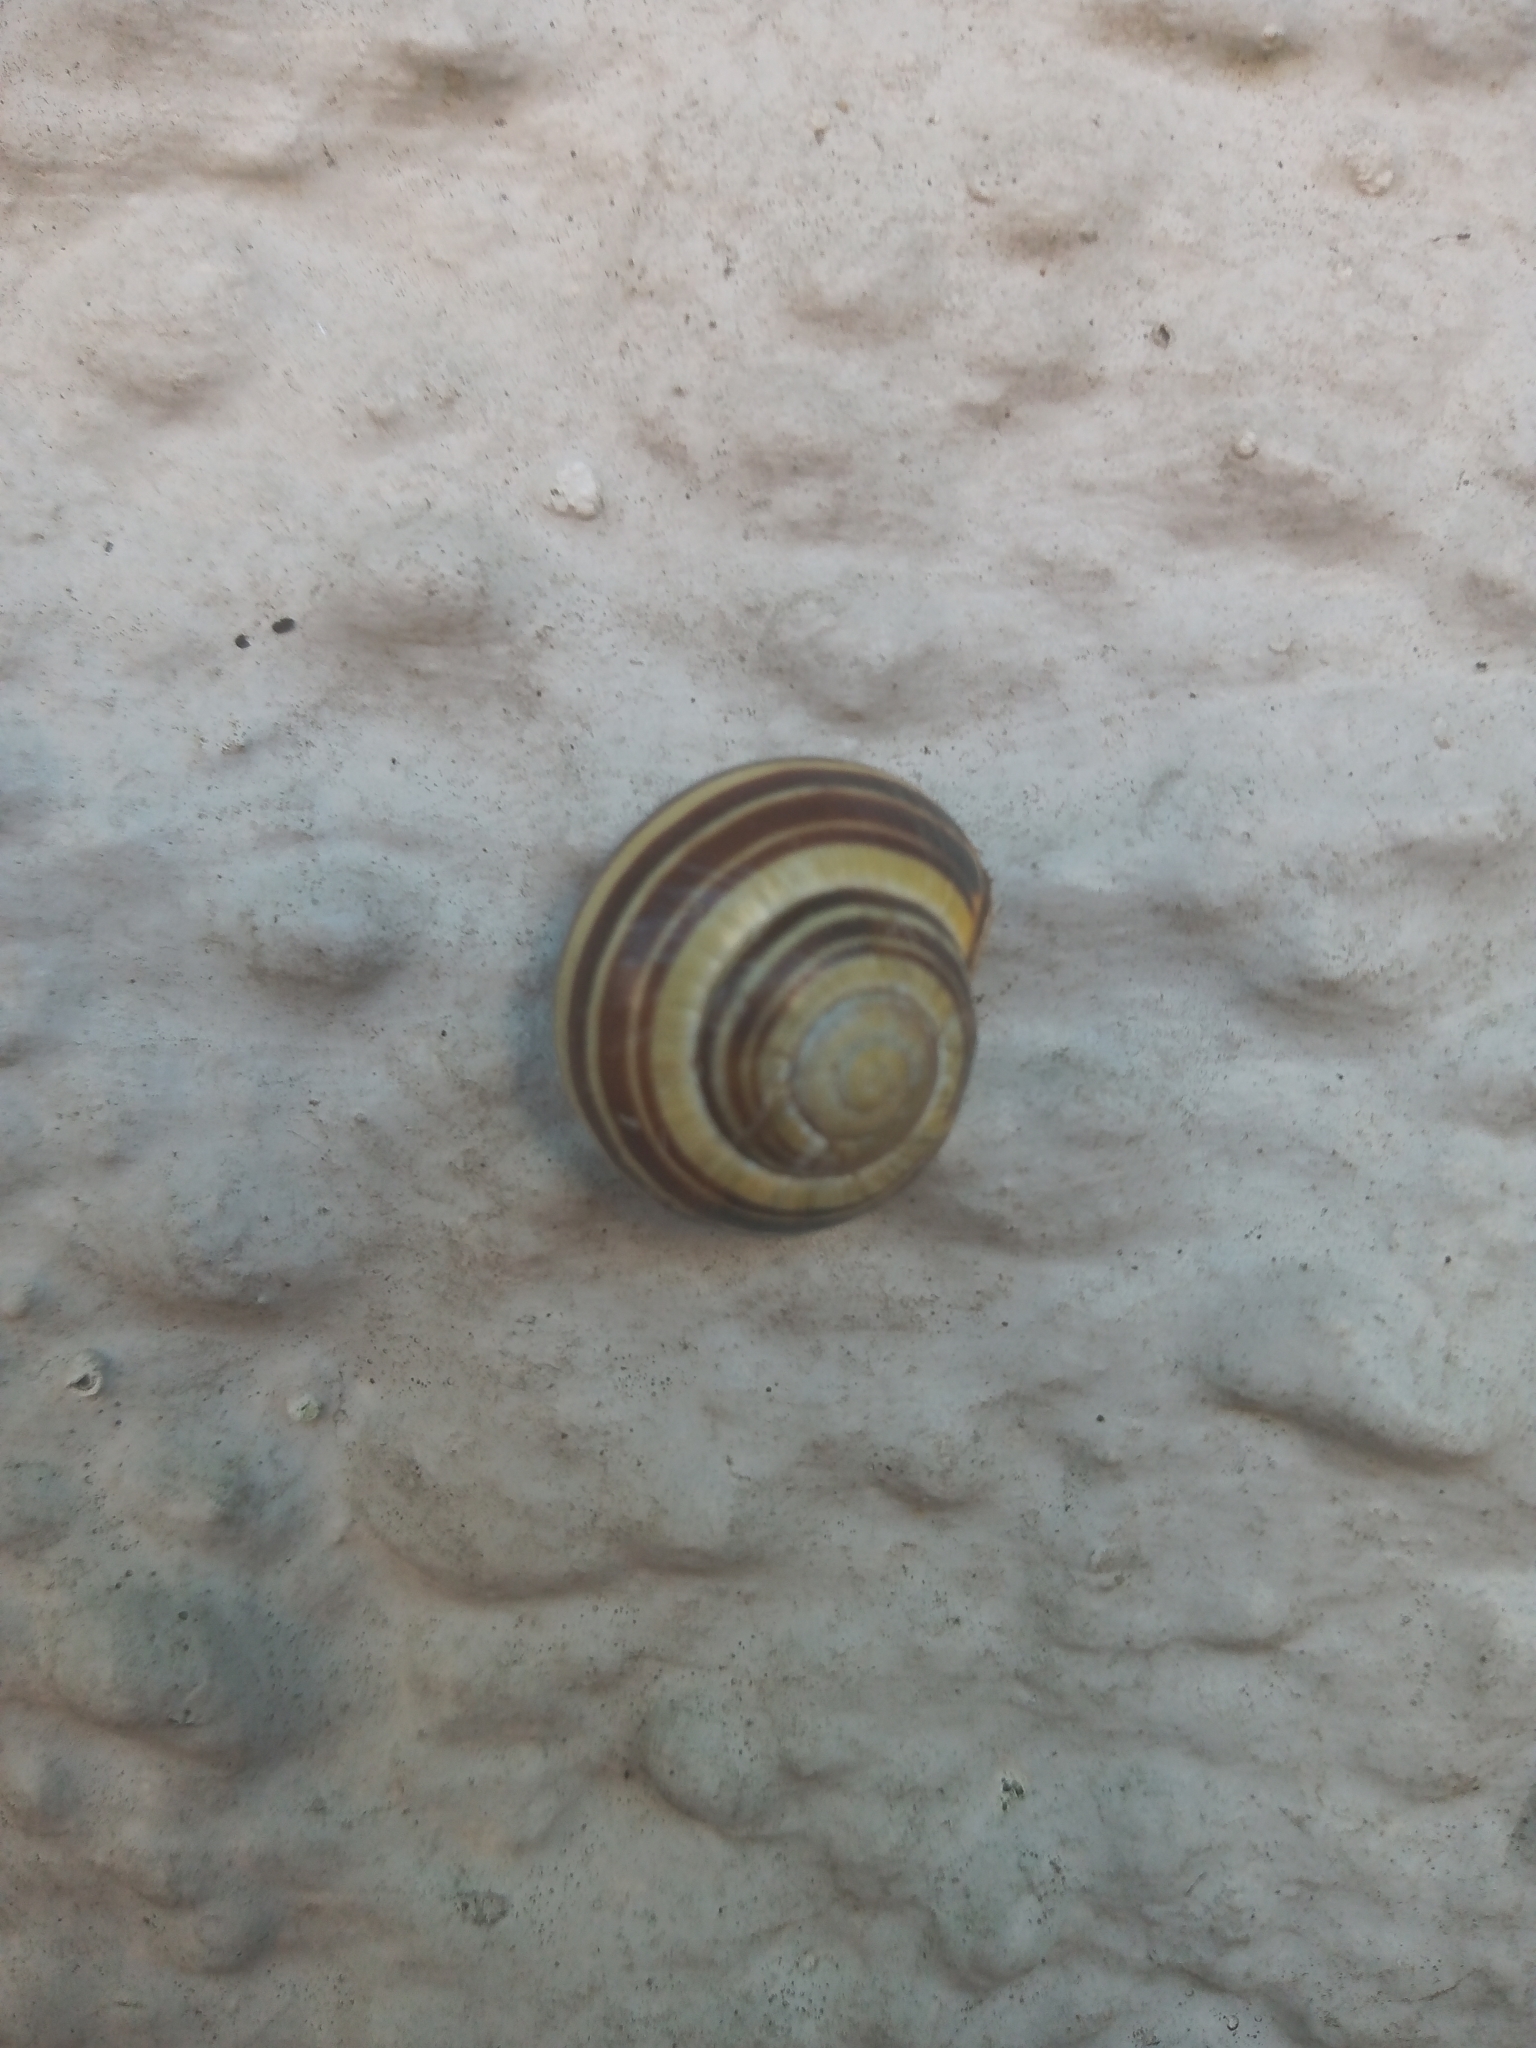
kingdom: Animalia
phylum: Mollusca
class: Gastropoda
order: Stylommatophora
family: Helicidae
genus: Cepaea
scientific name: Cepaea nemoralis
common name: Grovesnail
